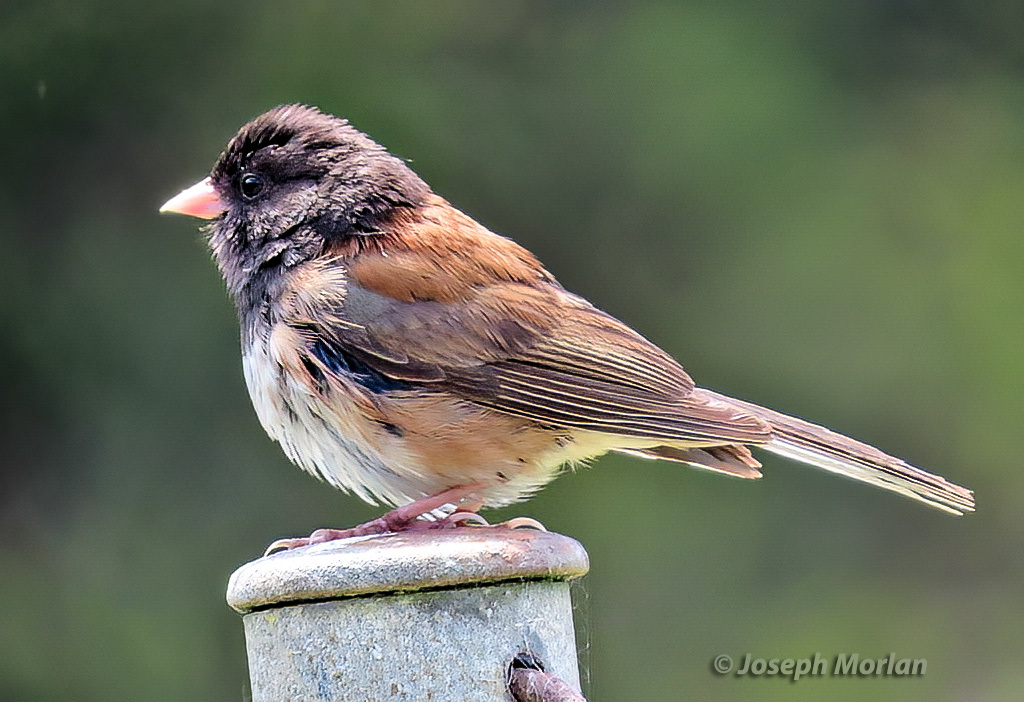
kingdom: Animalia
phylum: Chordata
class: Aves
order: Passeriformes
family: Passerellidae
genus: Junco
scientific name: Junco hyemalis
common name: Dark-eyed junco
